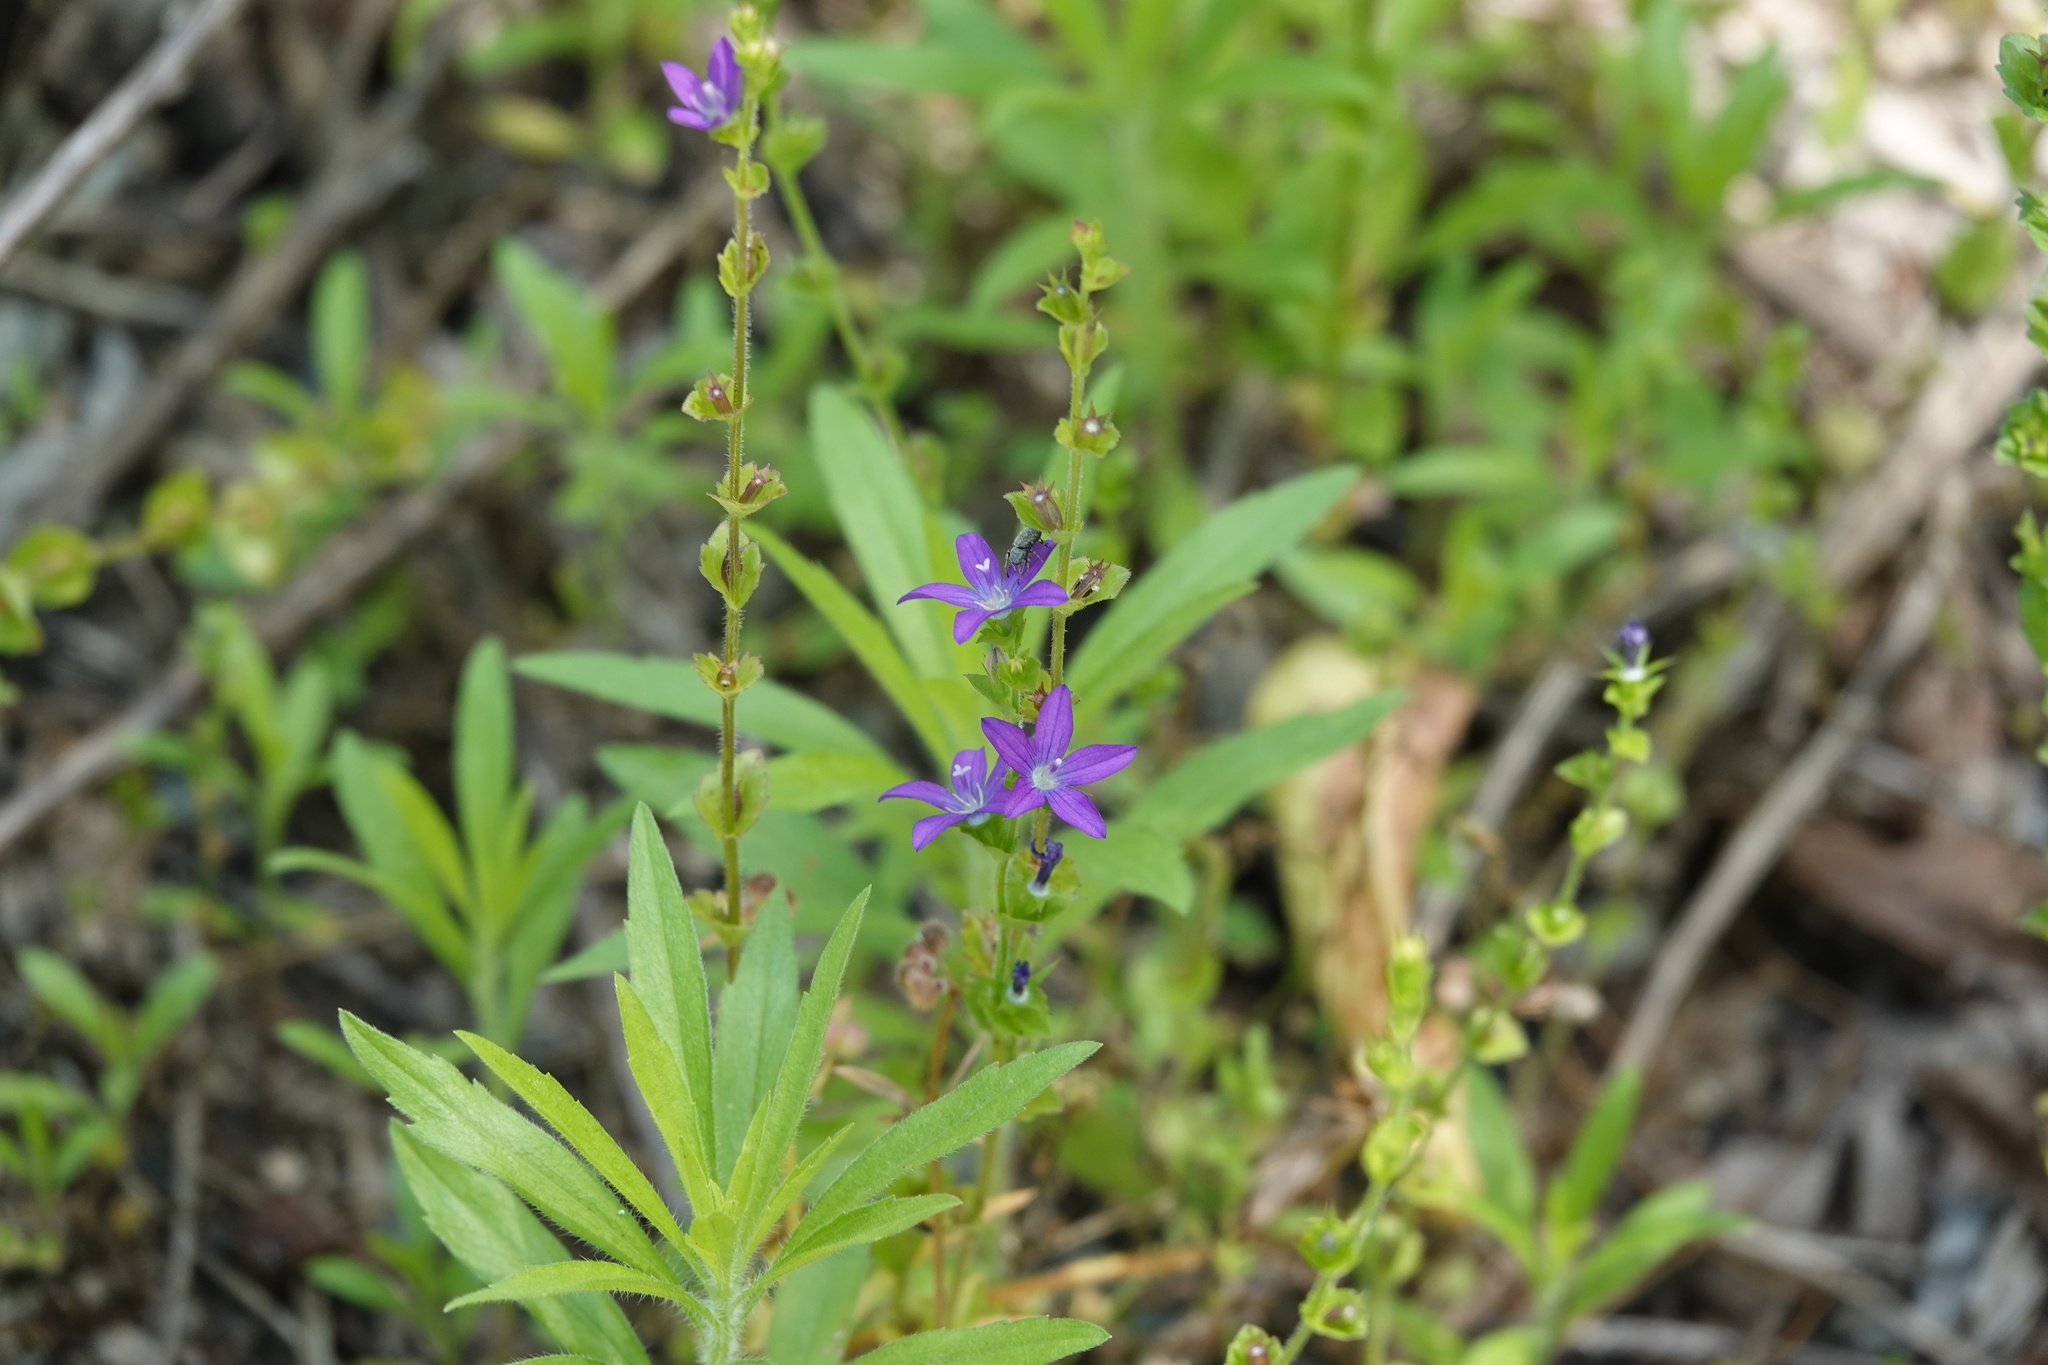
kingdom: Plantae
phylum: Tracheophyta
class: Magnoliopsida
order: Asterales
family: Campanulaceae
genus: Triodanis
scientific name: Triodanis perfoliata
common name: Clasping venus' looking-glass
